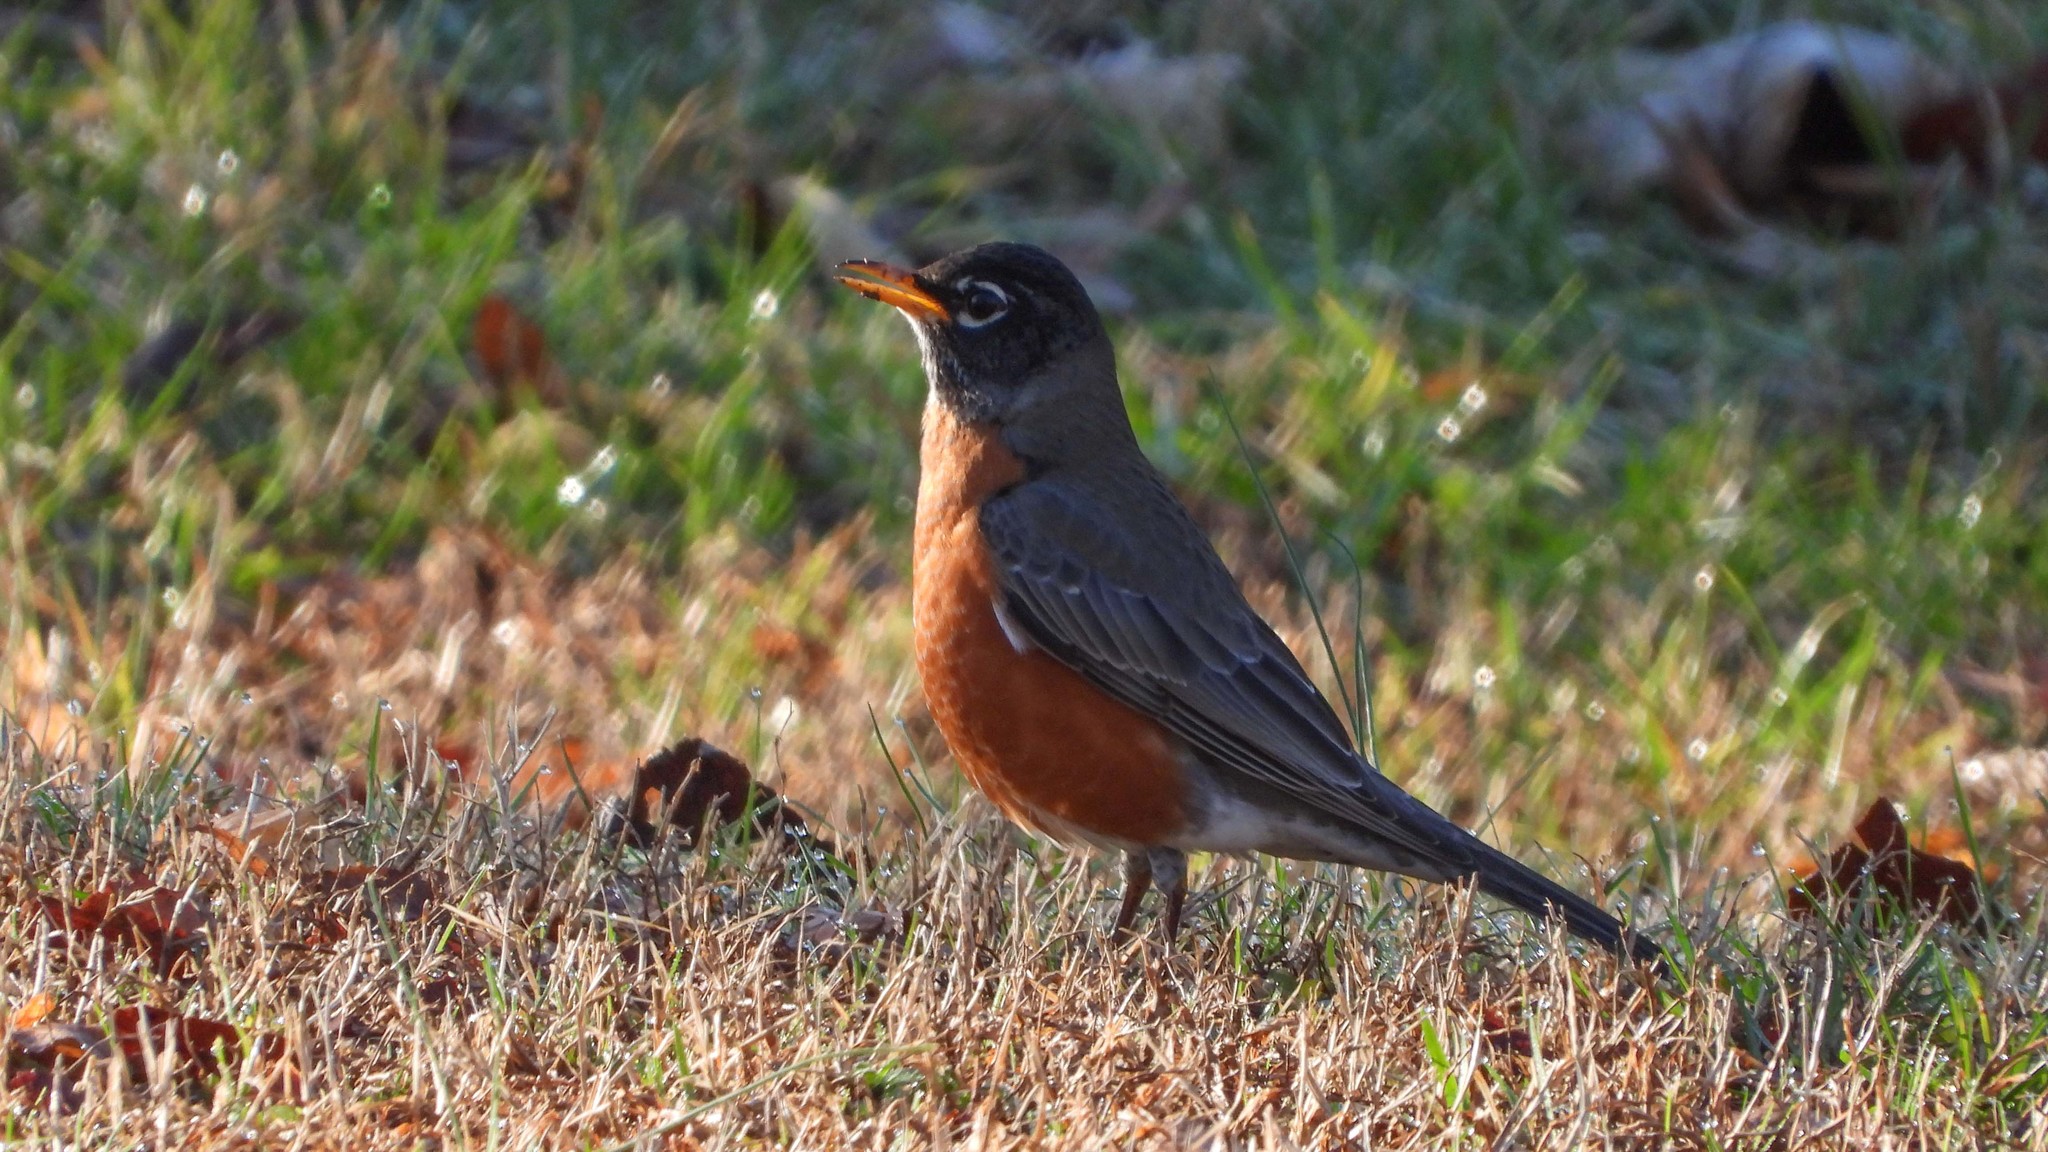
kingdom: Animalia
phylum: Chordata
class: Aves
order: Passeriformes
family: Turdidae
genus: Turdus
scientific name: Turdus migratorius
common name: American robin
